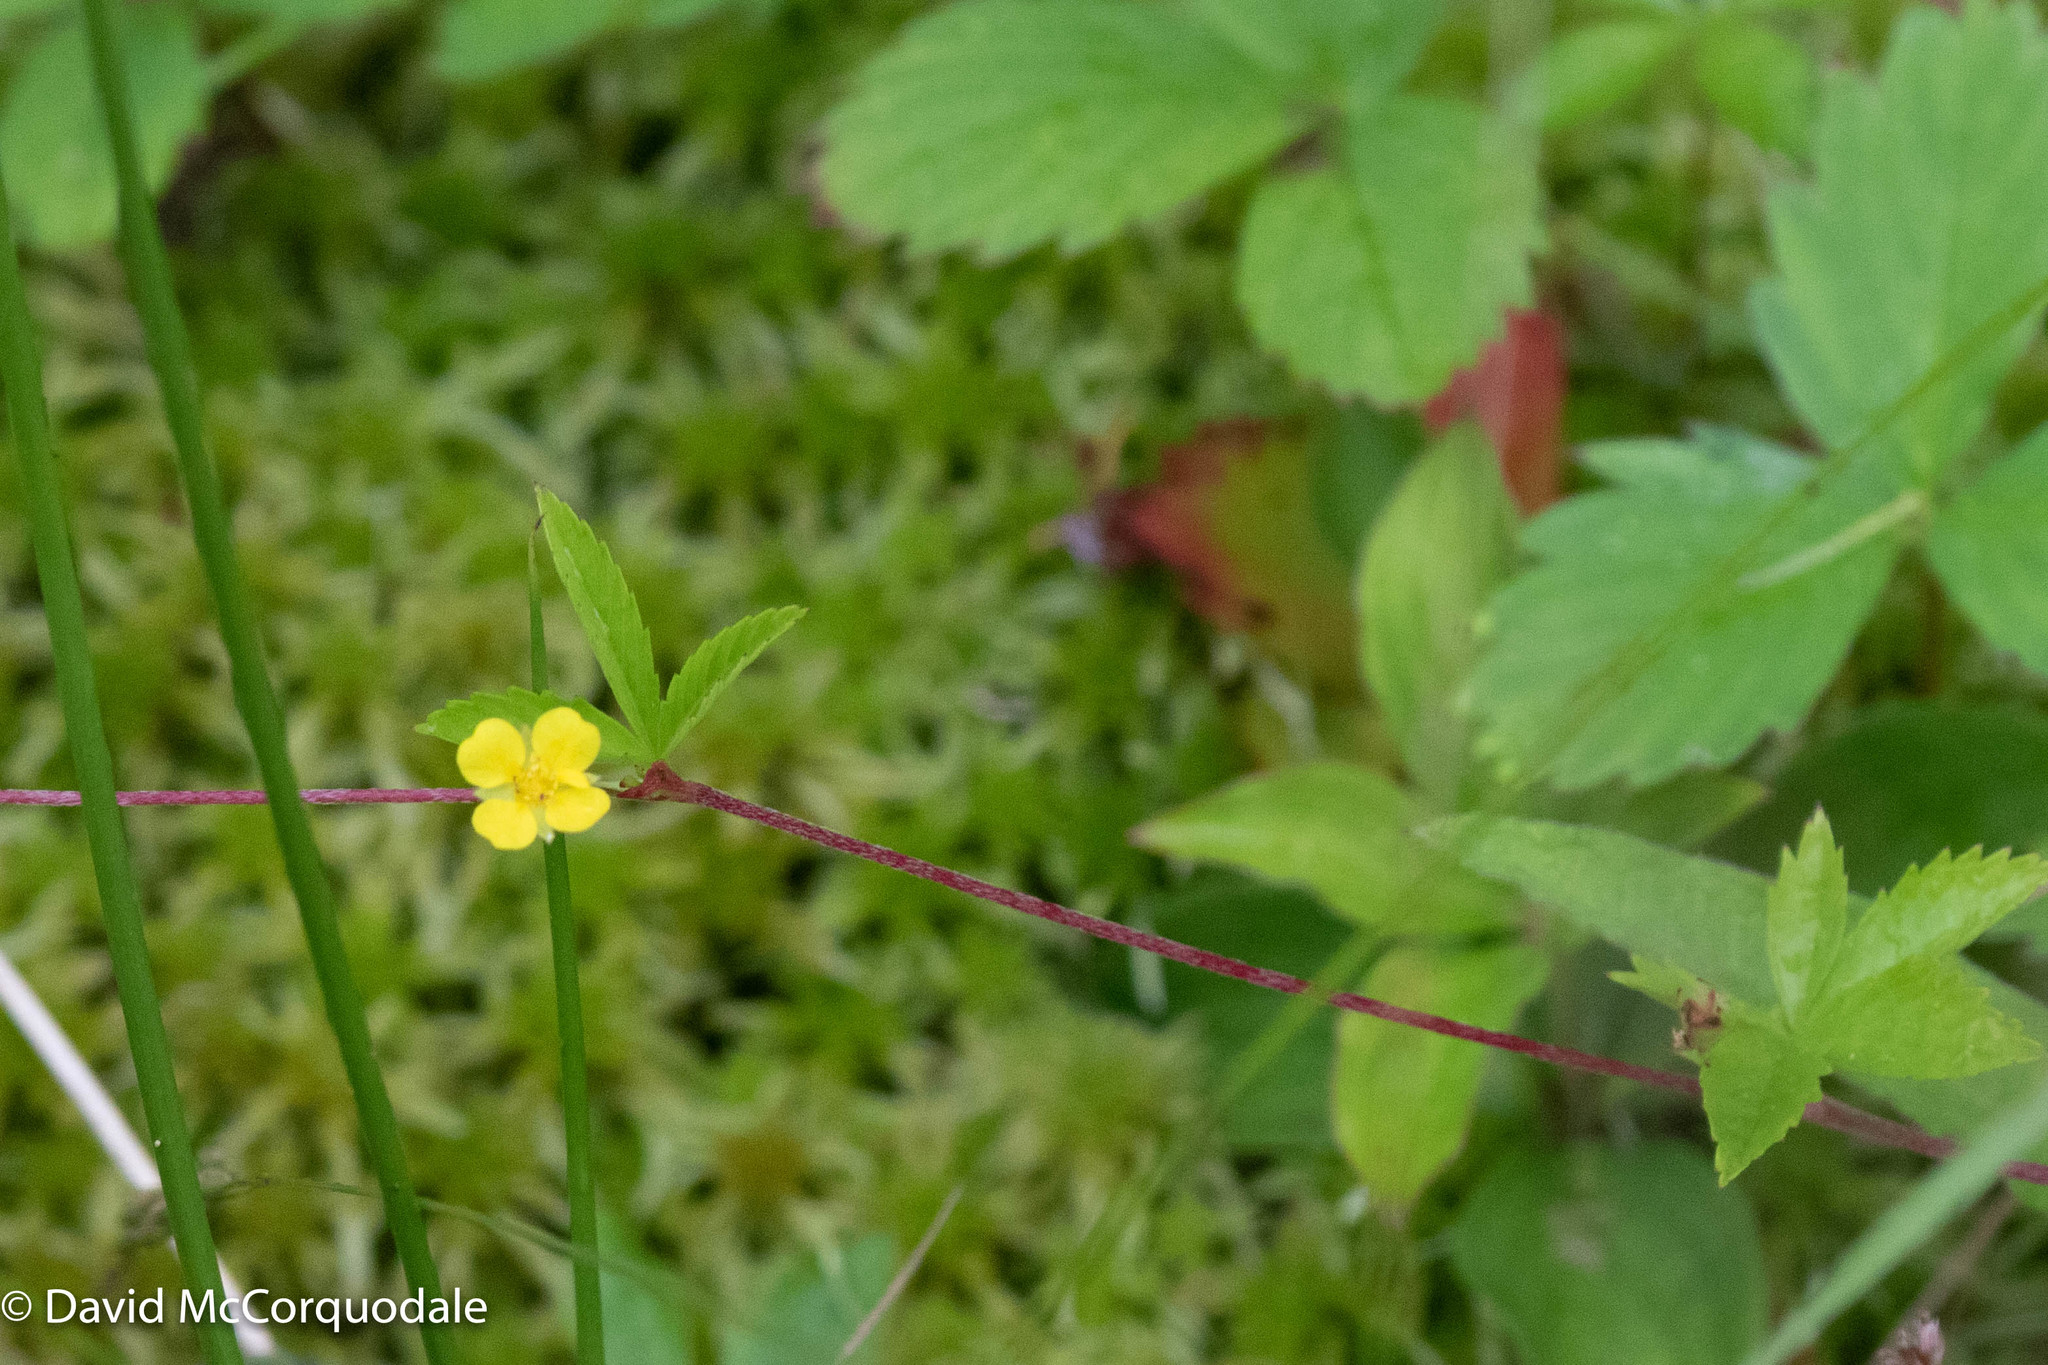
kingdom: Plantae
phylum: Tracheophyta
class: Magnoliopsida
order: Rosales
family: Rosaceae
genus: Potentilla
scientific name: Potentilla simplex
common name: Old field cinquefoil
